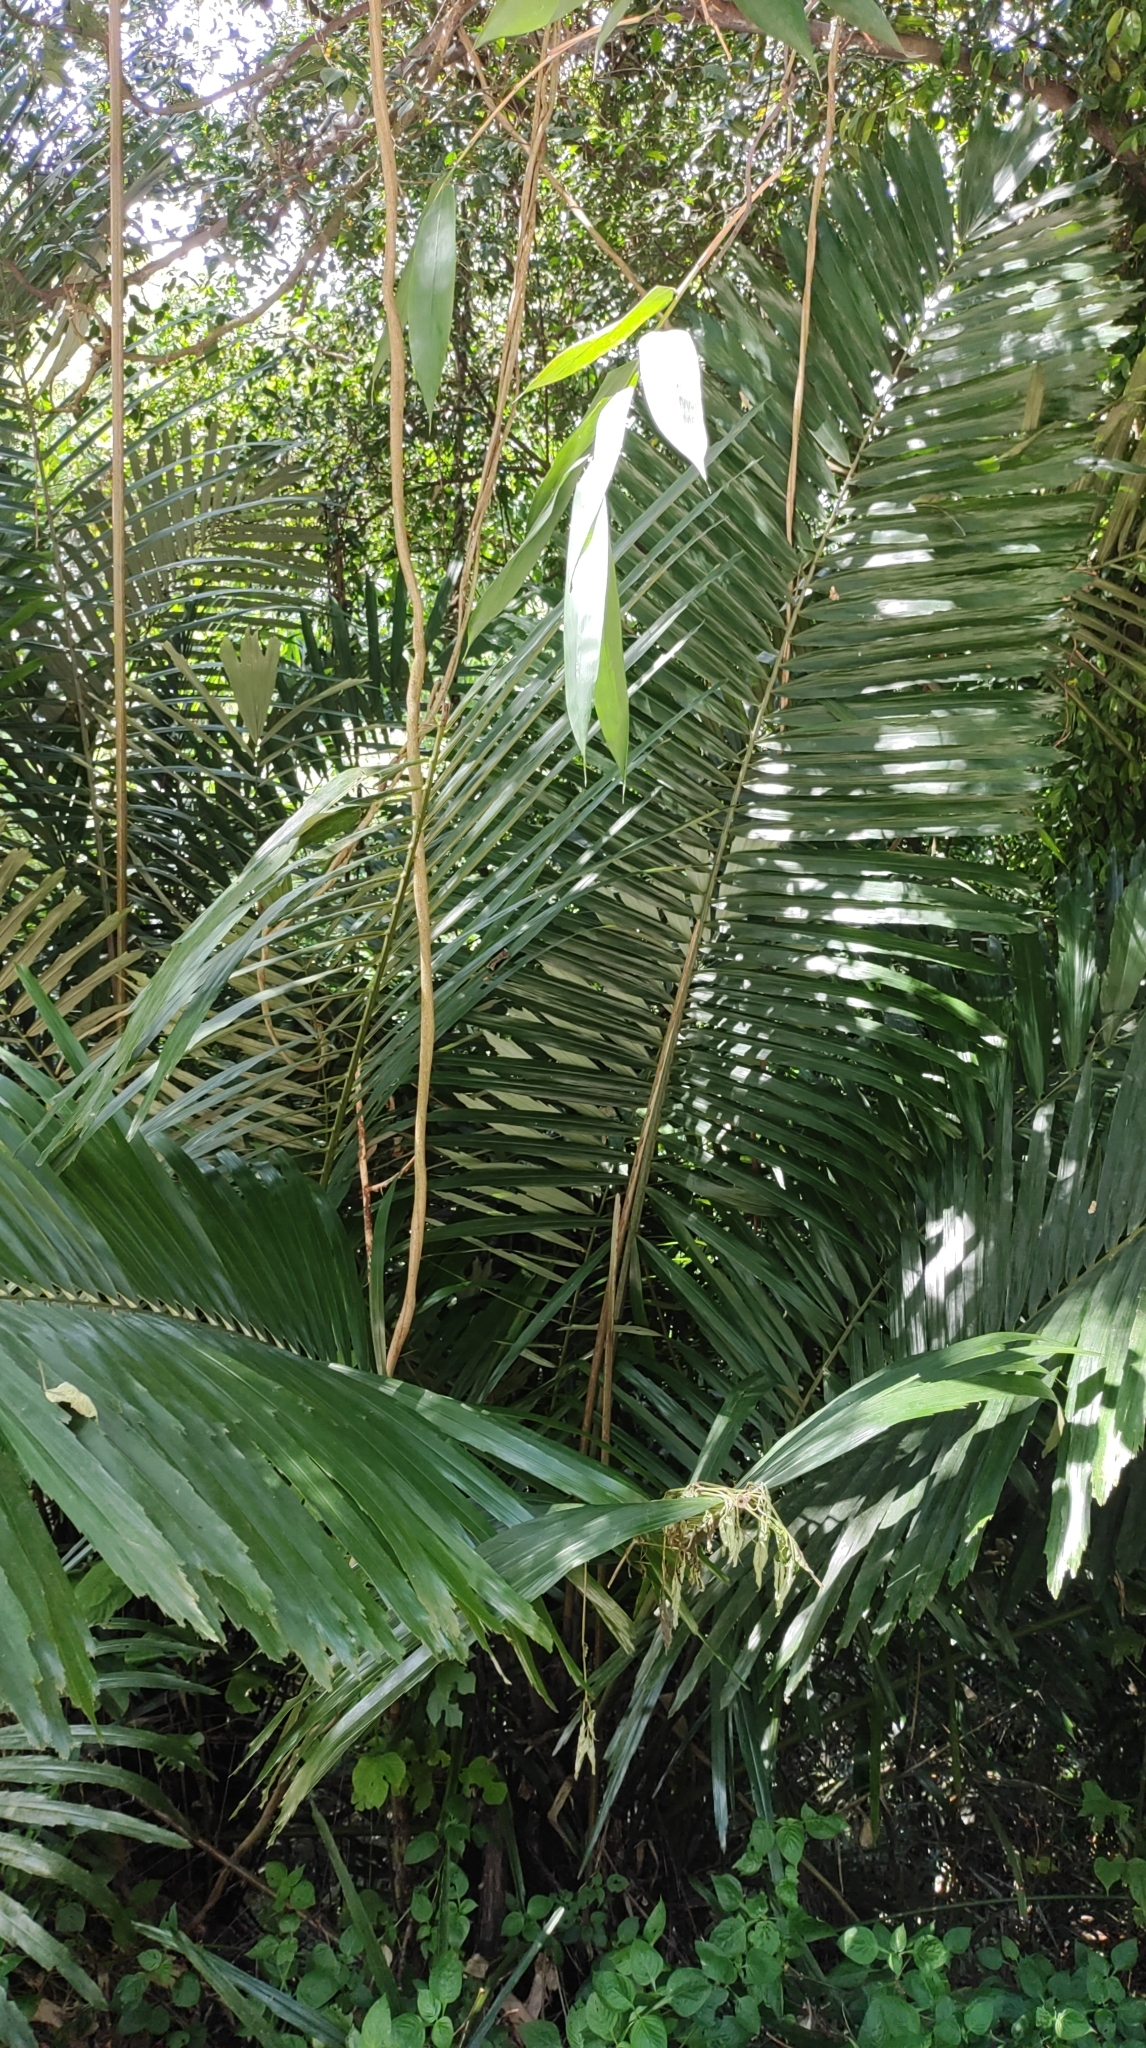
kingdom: Plantae
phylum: Tracheophyta
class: Liliopsida
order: Arecales
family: Arecaceae
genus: Arenga
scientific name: Arenga engleri
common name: Formosan sugar palm
